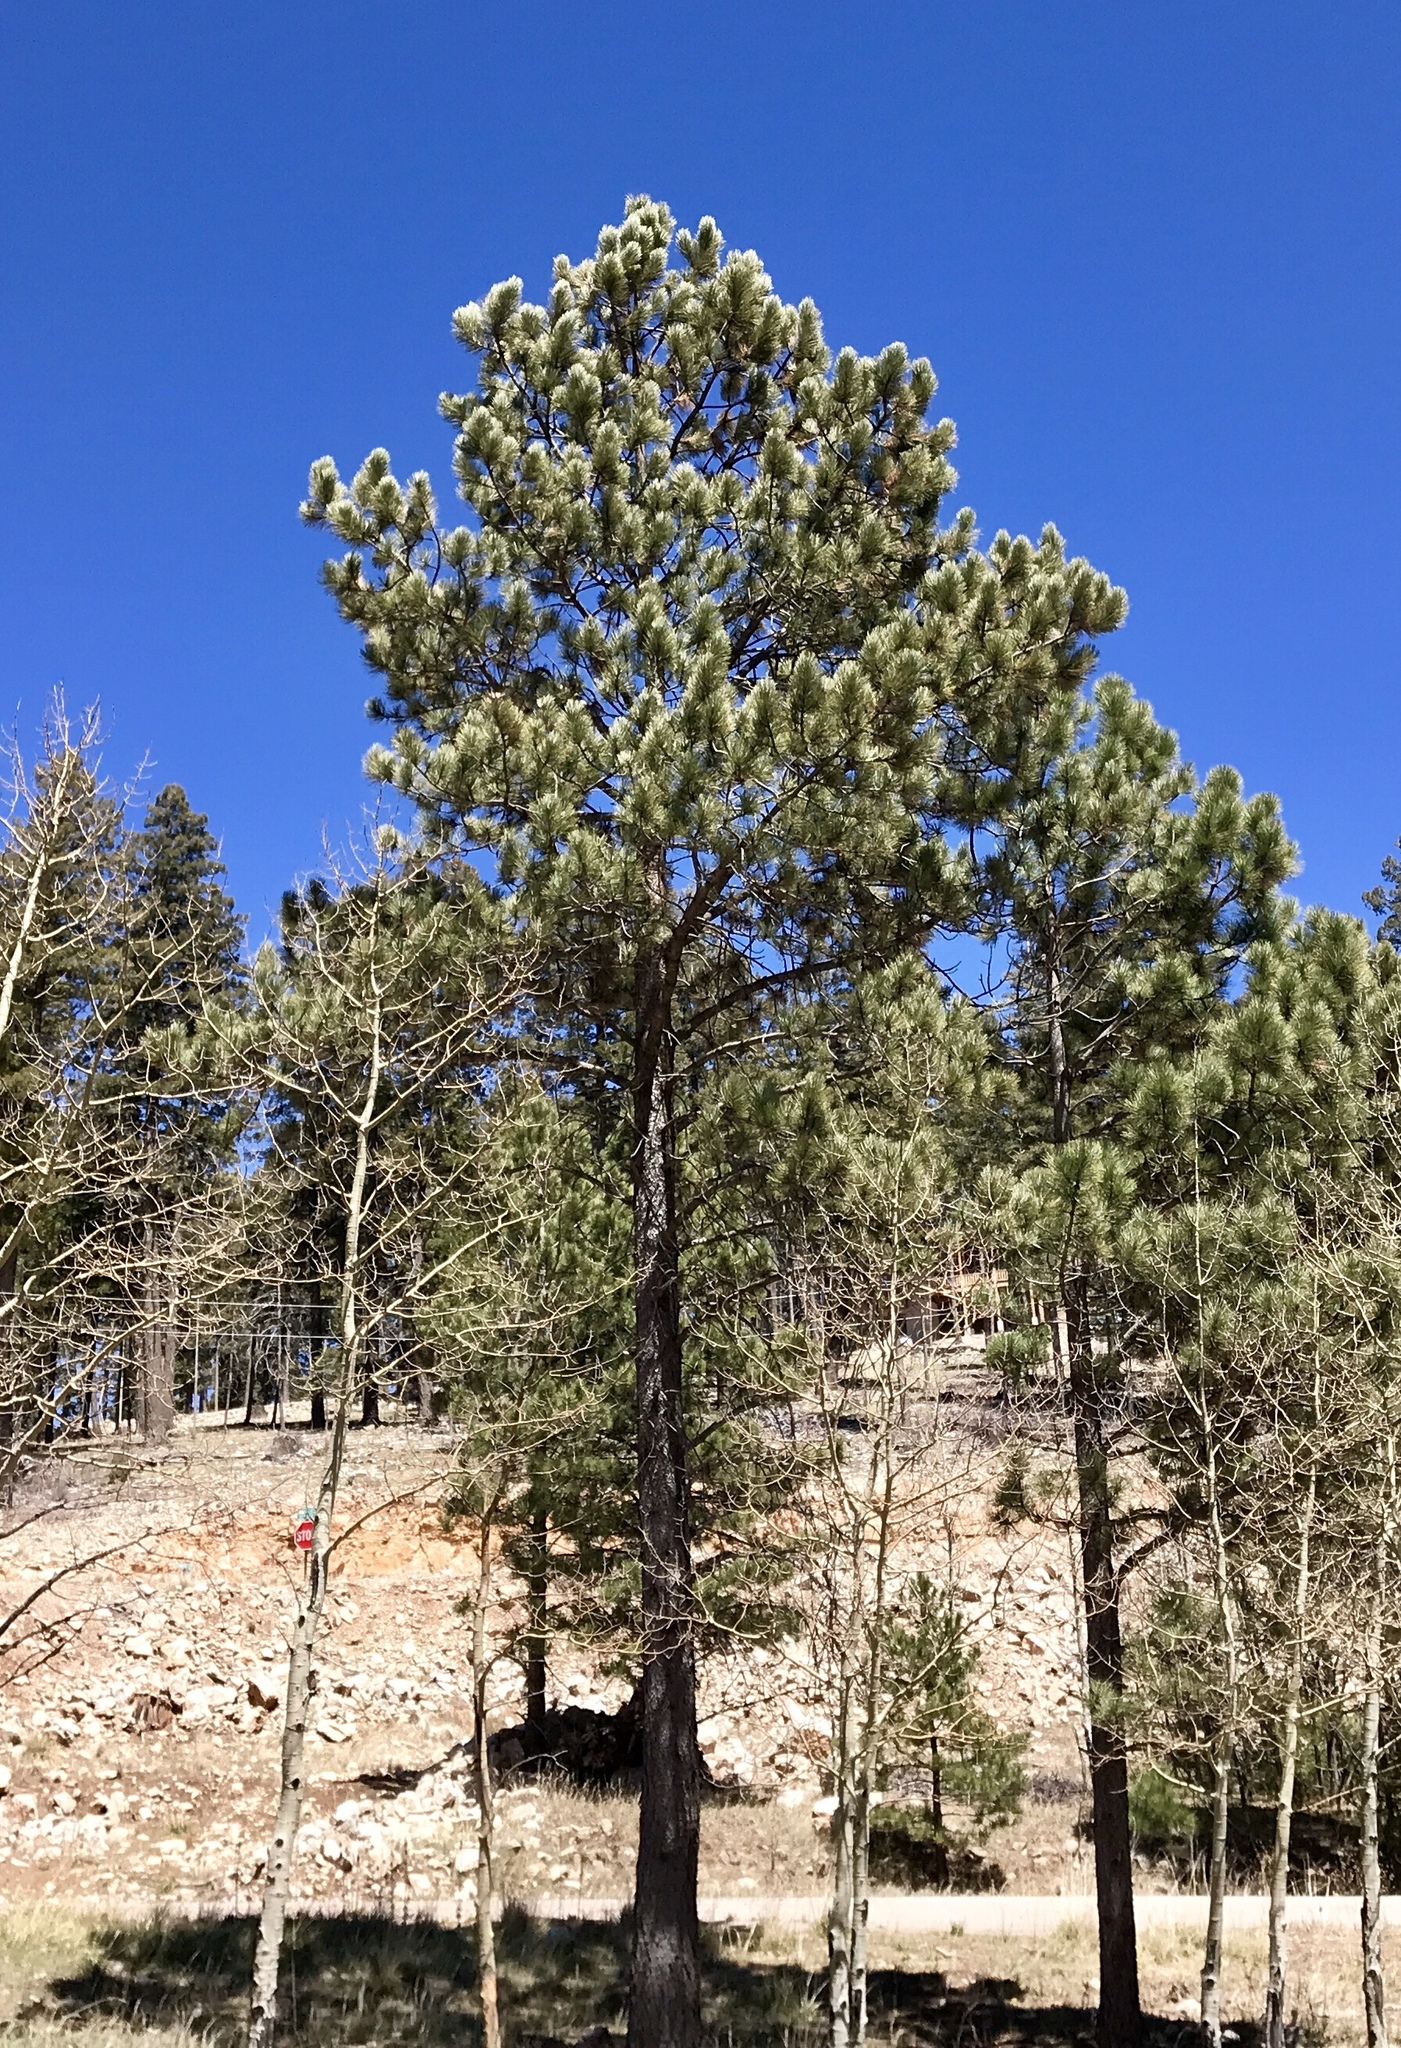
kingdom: Plantae
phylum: Tracheophyta
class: Pinopsida
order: Pinales
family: Pinaceae
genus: Pinus
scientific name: Pinus ponderosa
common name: Western yellow-pine
